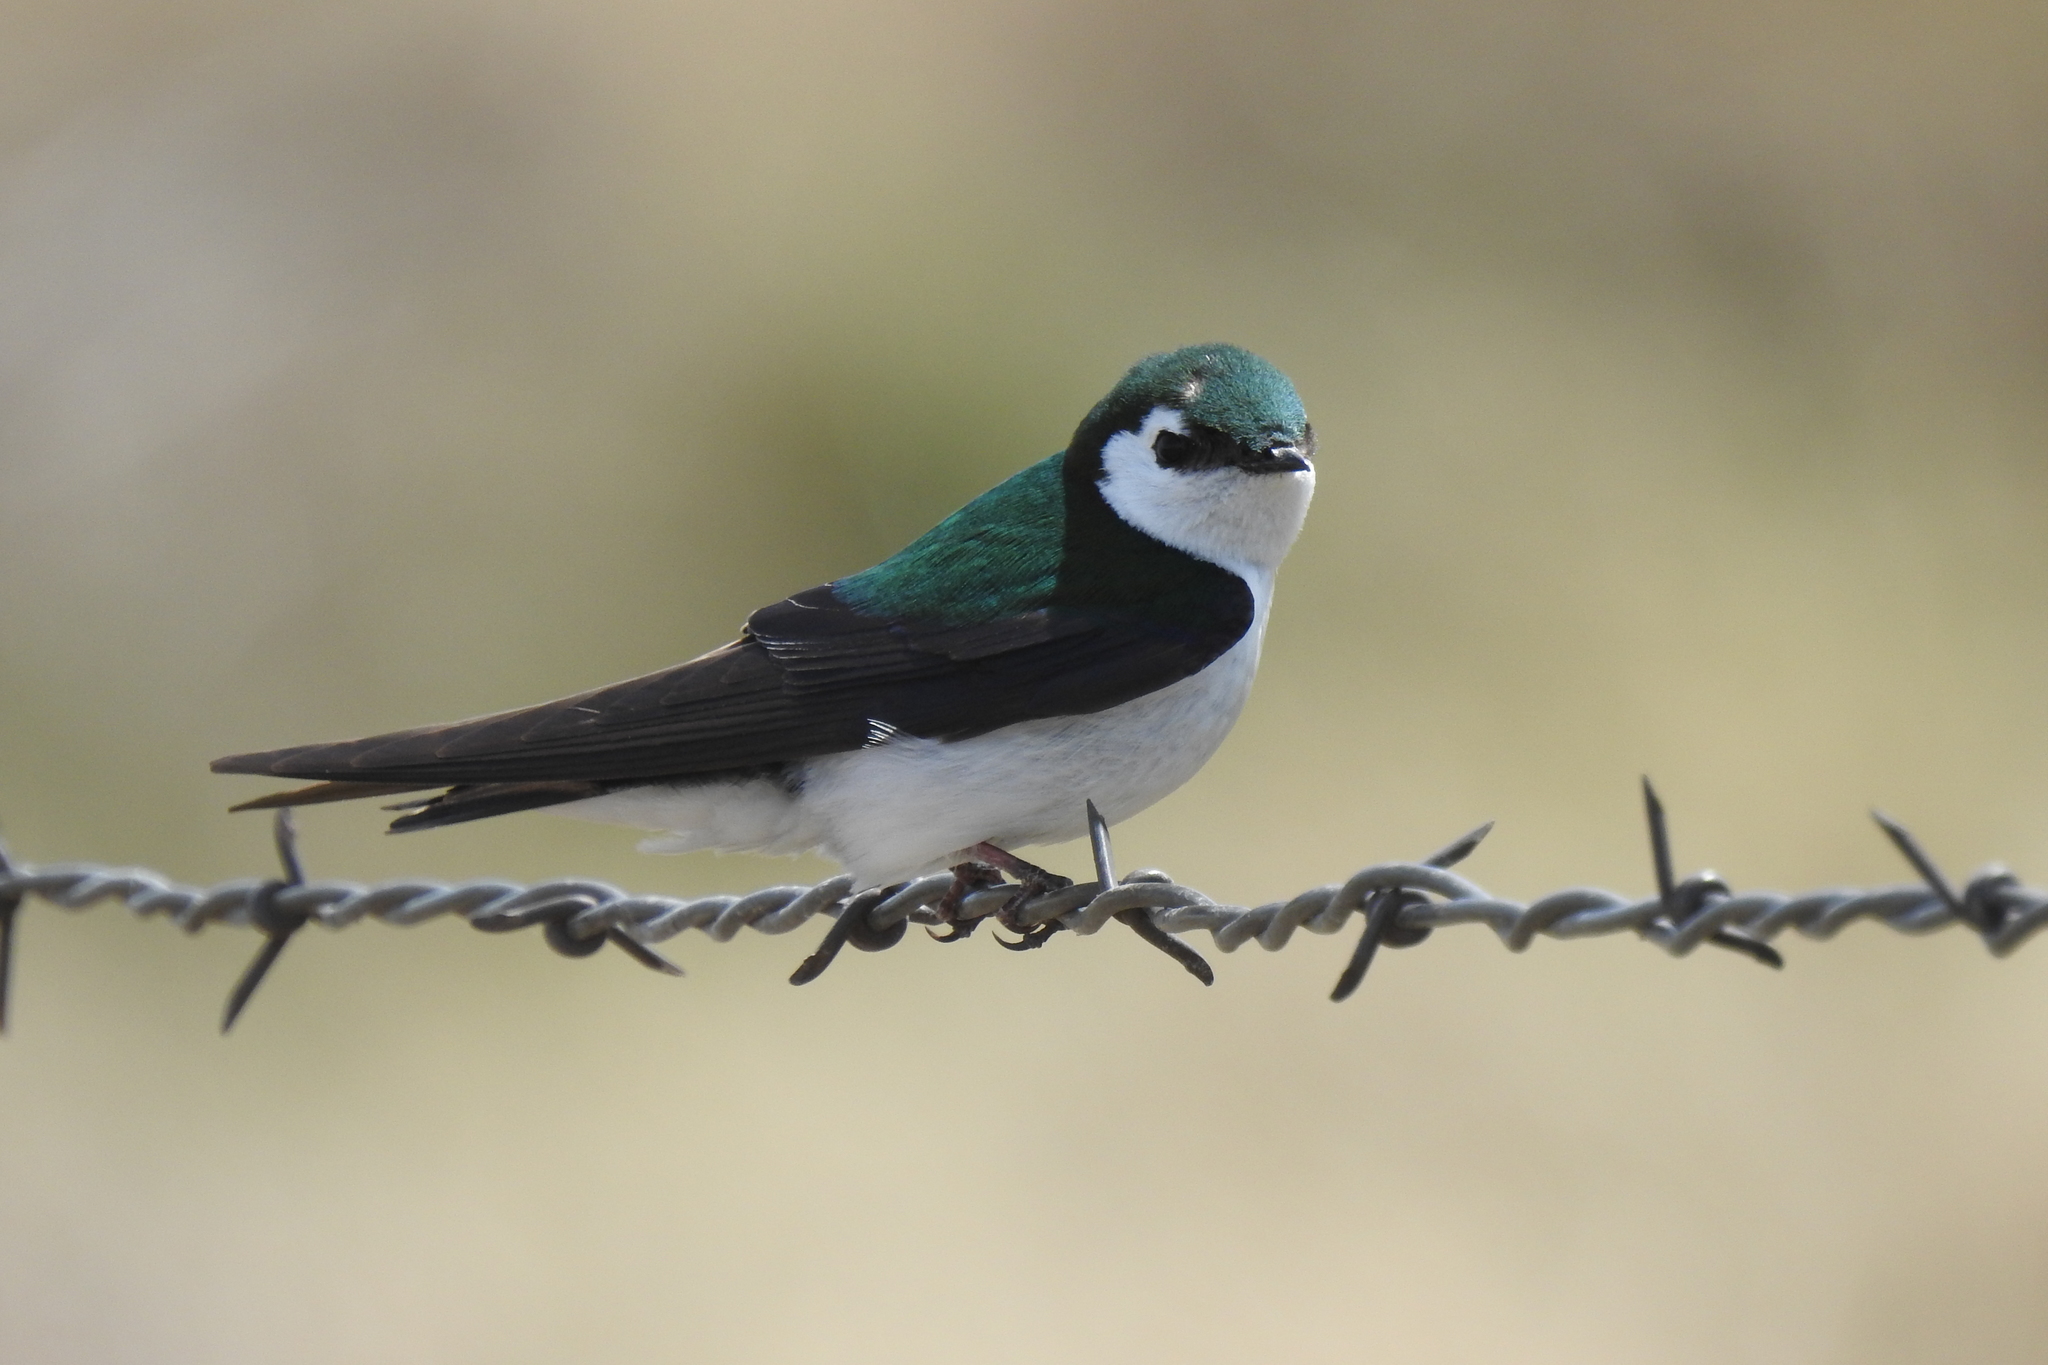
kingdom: Animalia
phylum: Chordata
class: Aves
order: Passeriformes
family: Hirundinidae
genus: Tachycineta
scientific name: Tachycineta thalassina
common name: Violet-green swallow
